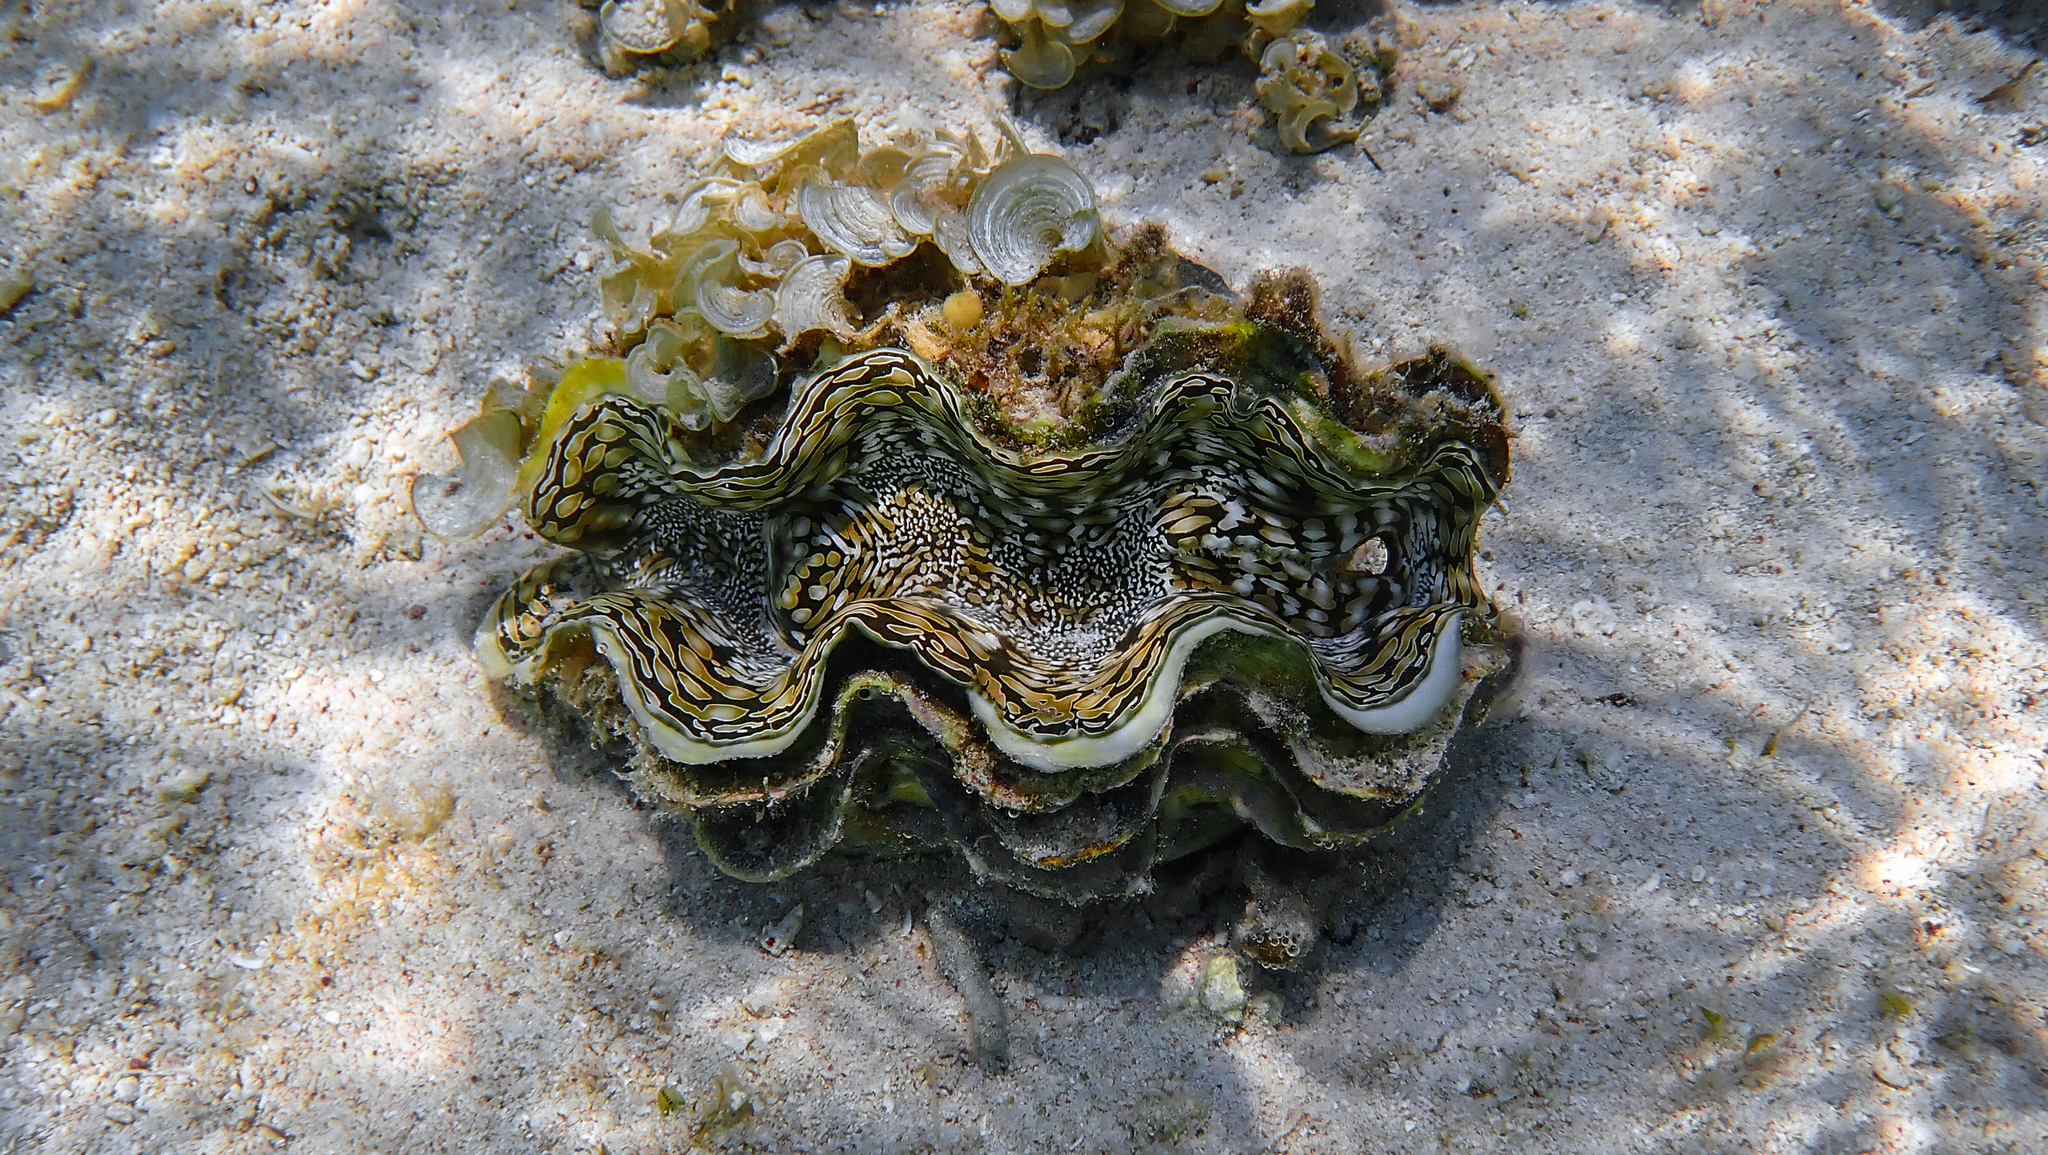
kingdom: Animalia
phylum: Mollusca
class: Bivalvia
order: Cardiida
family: Cardiidae
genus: Tridacna
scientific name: Tridacna squamosa
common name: Fluted clam
